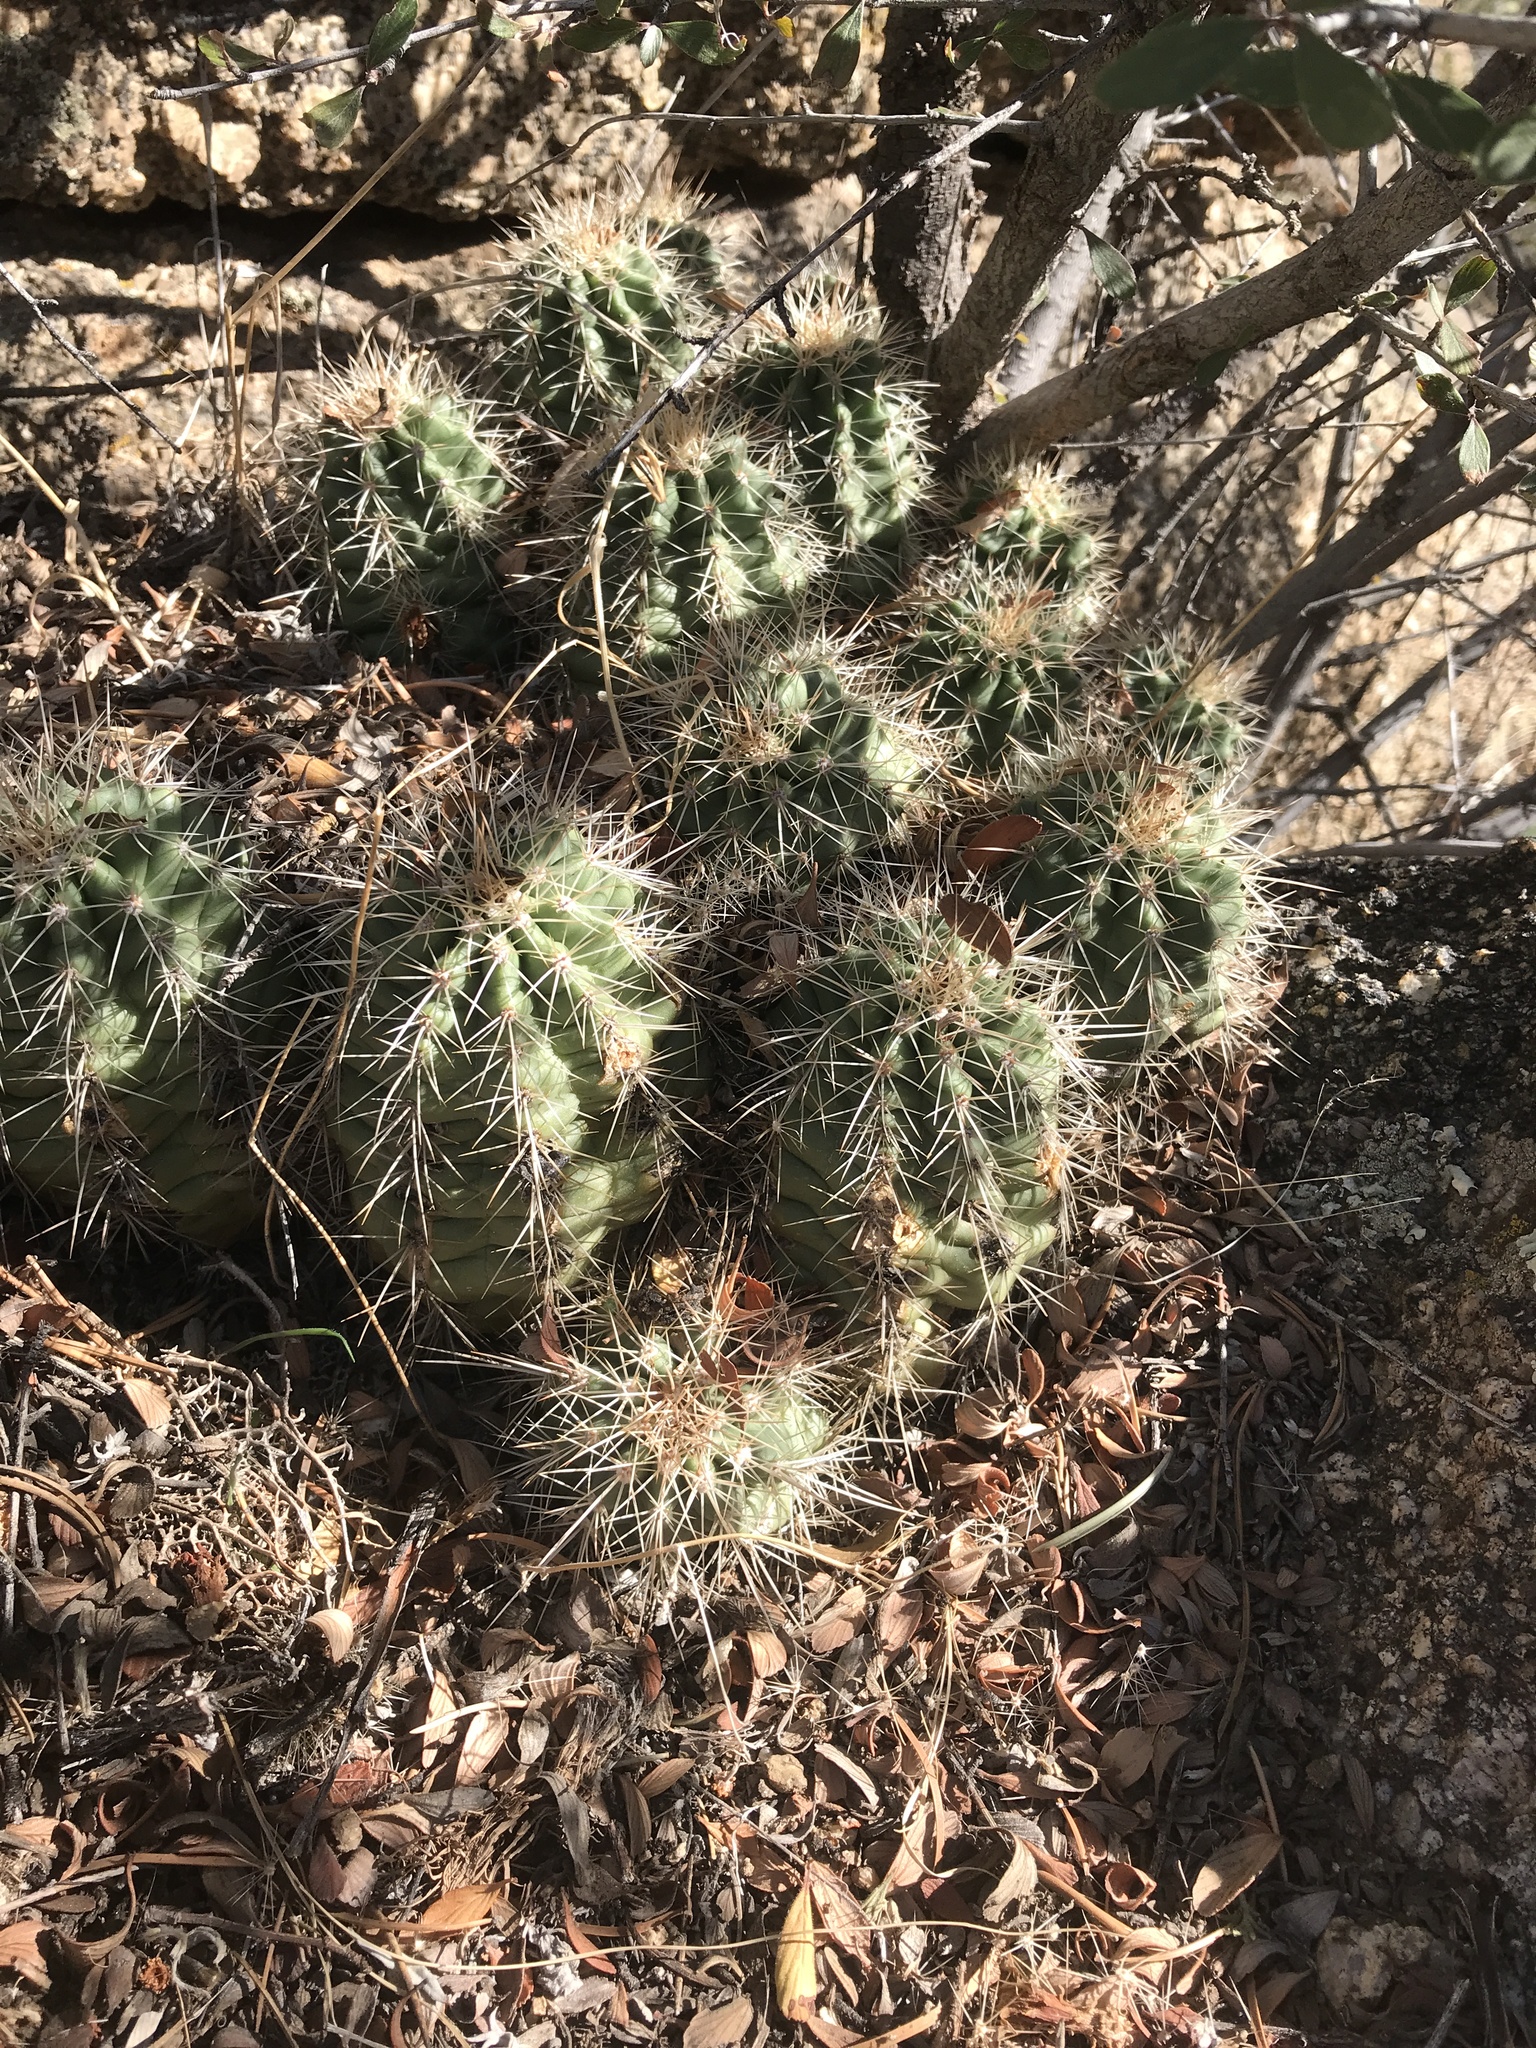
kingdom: Plantae
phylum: Tracheophyta
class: Magnoliopsida
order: Caryophyllales
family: Cactaceae
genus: Echinocereus
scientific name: Echinocereus coccineus
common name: Scarlet hedgehog cactus
